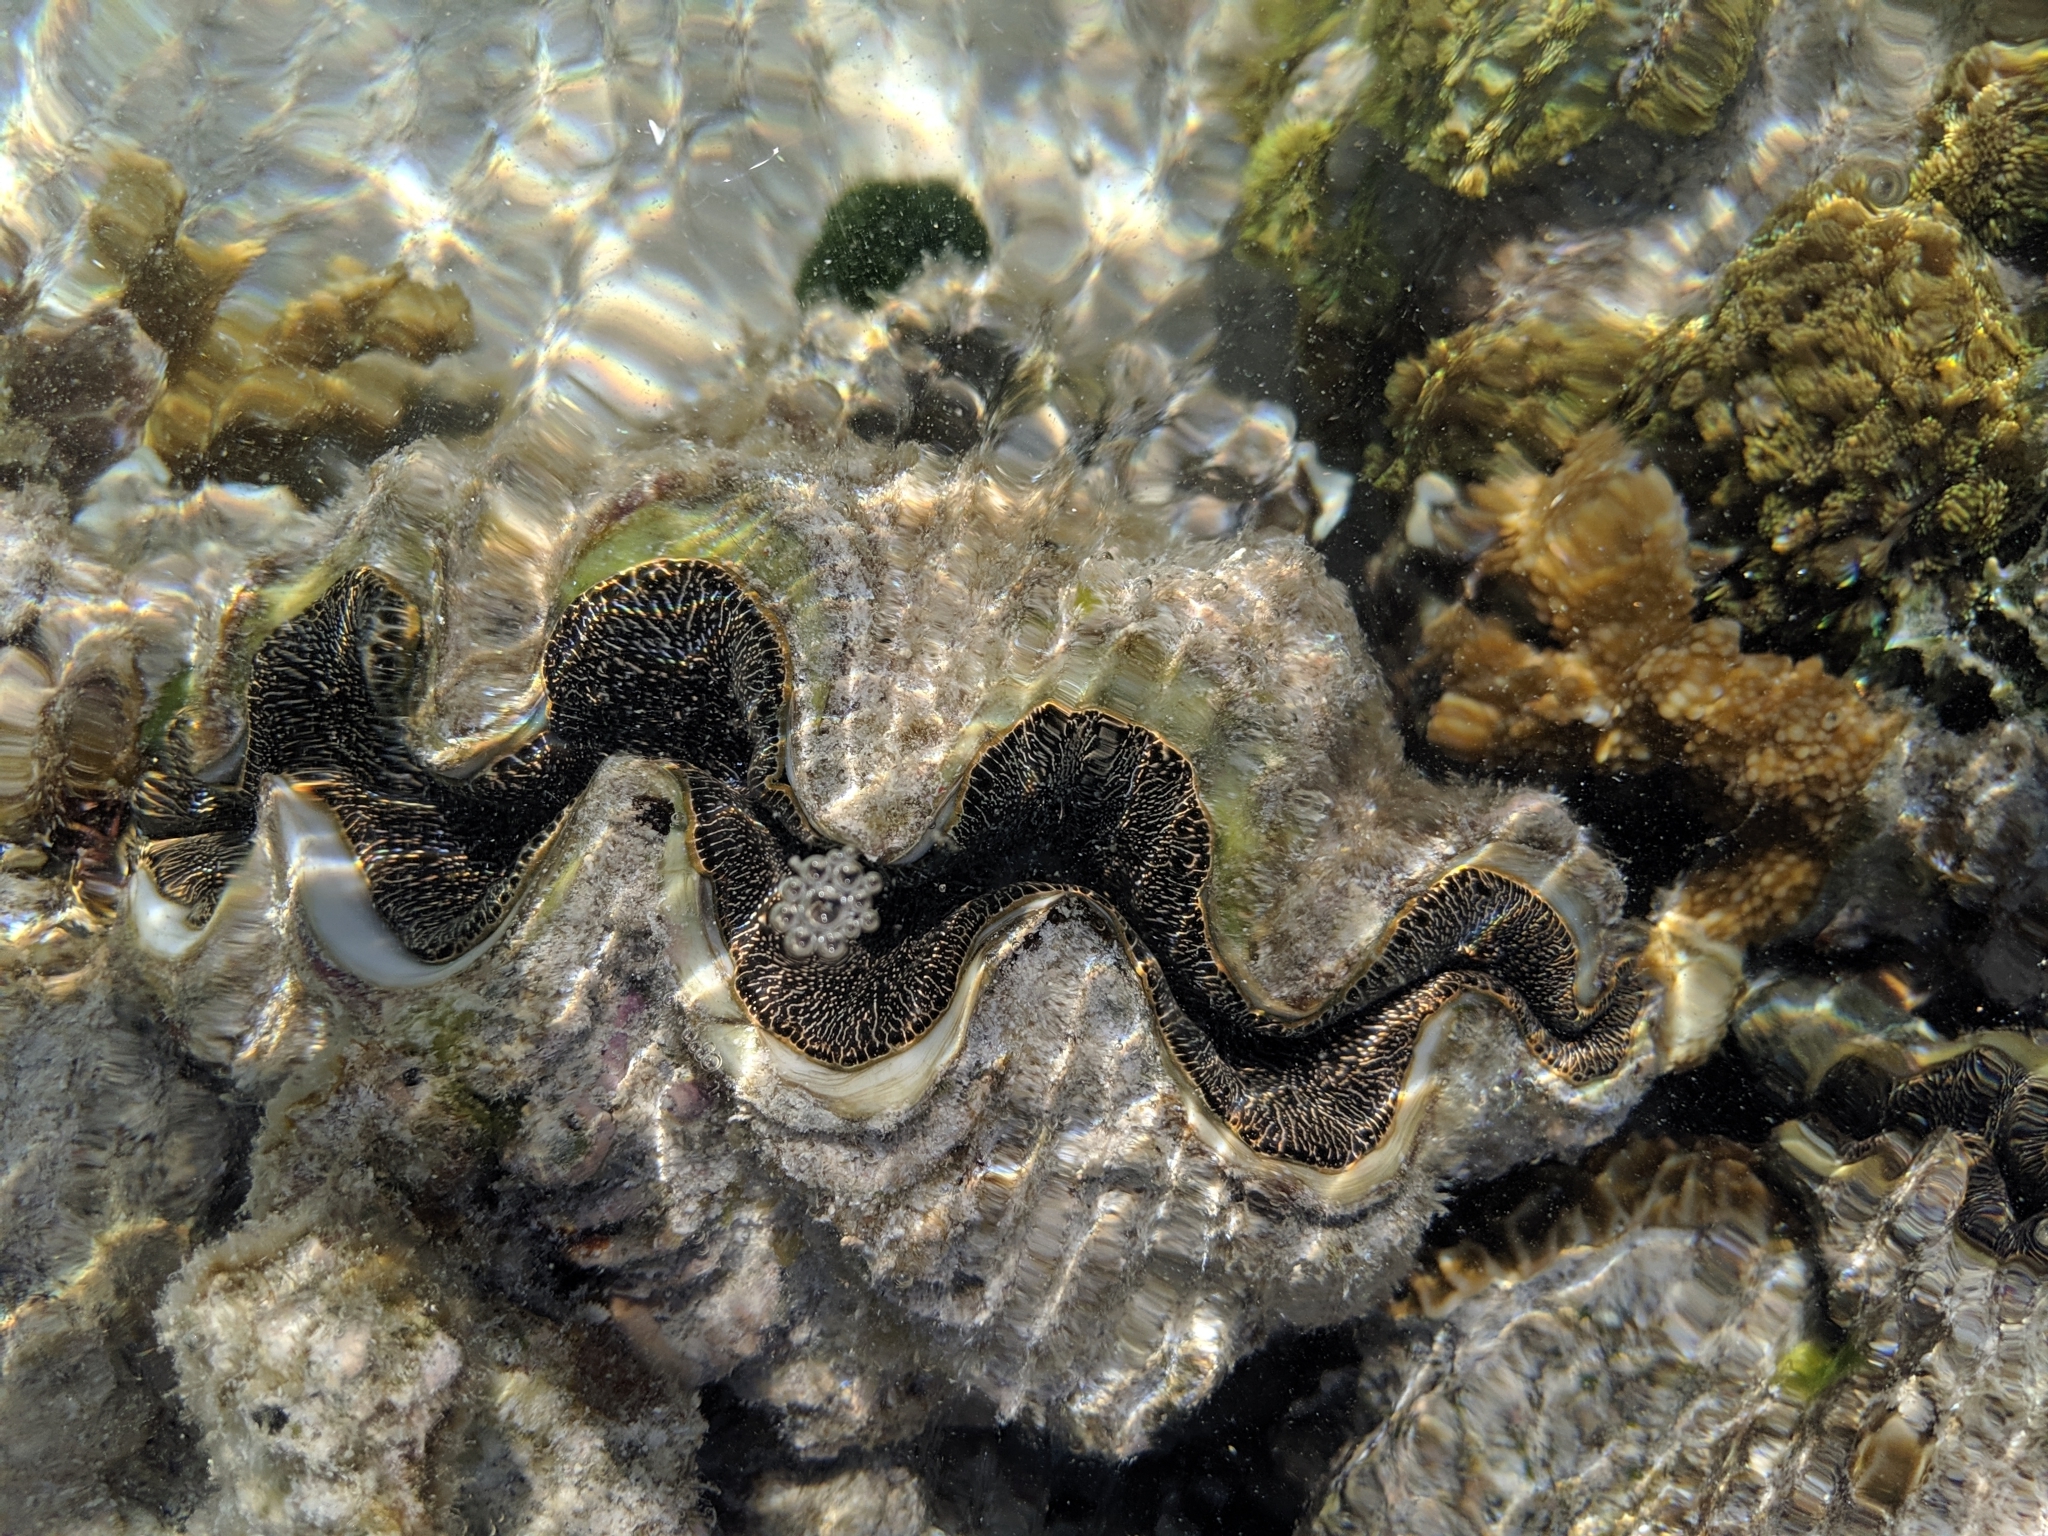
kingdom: Animalia
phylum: Mollusca
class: Bivalvia
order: Cardiida
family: Cardiidae
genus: Tridacna
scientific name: Tridacna maxima
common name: Small giant clam
